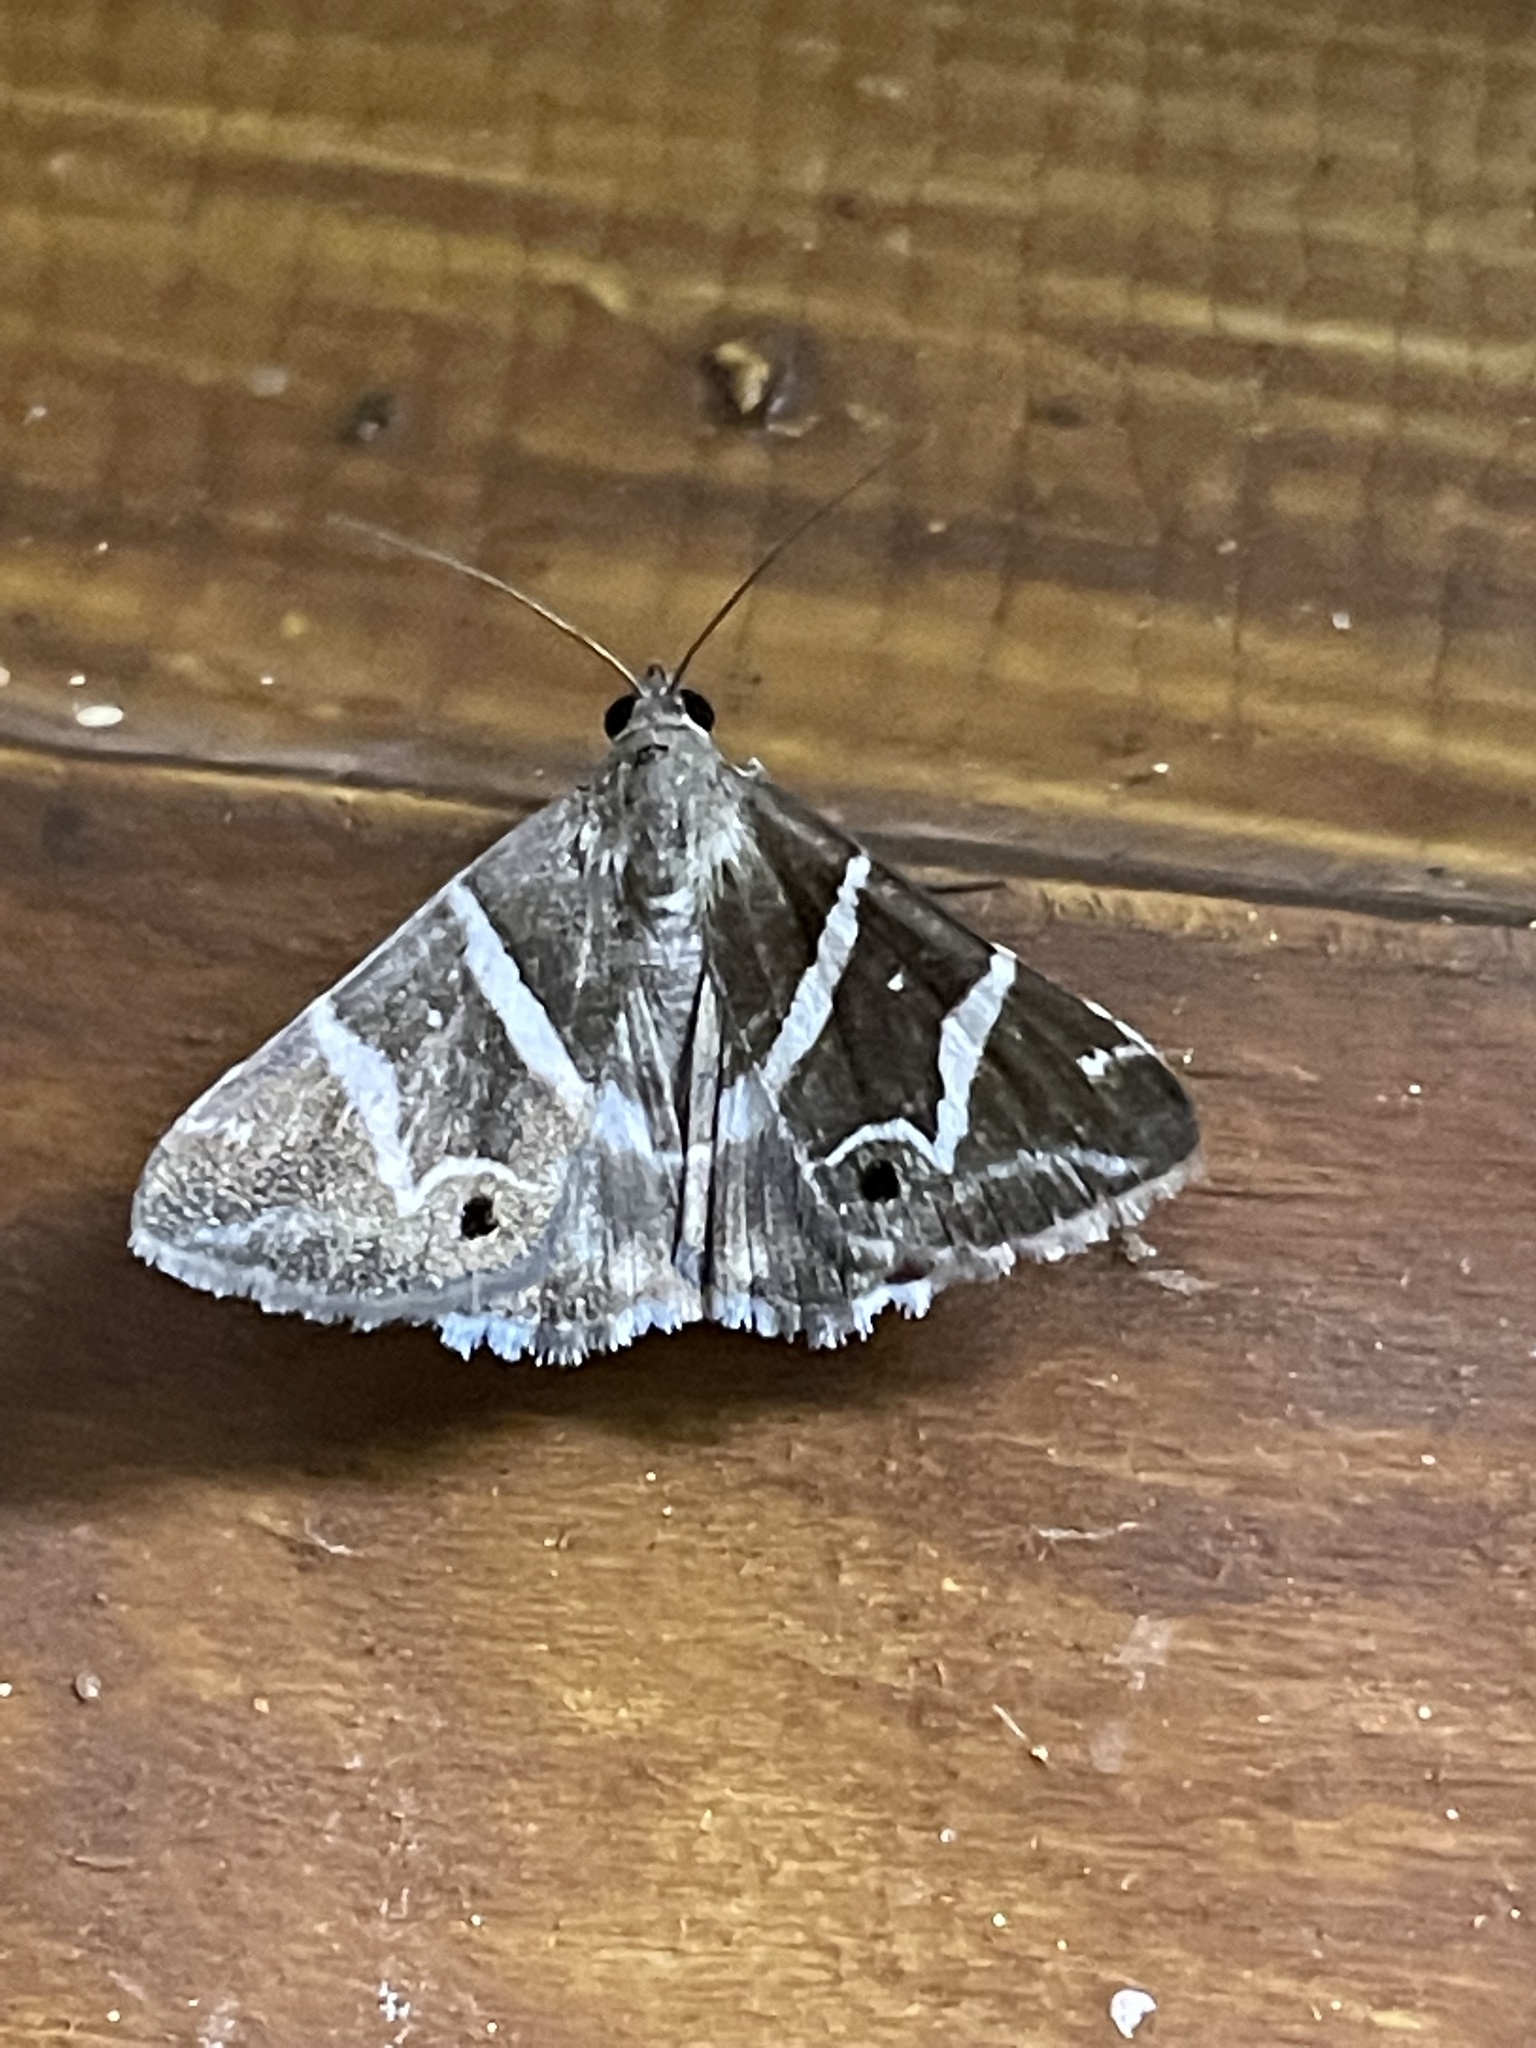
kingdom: Animalia
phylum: Arthropoda
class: Insecta
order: Lepidoptera
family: Erebidae
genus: Grammodes
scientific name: Grammodes pulcherrima
